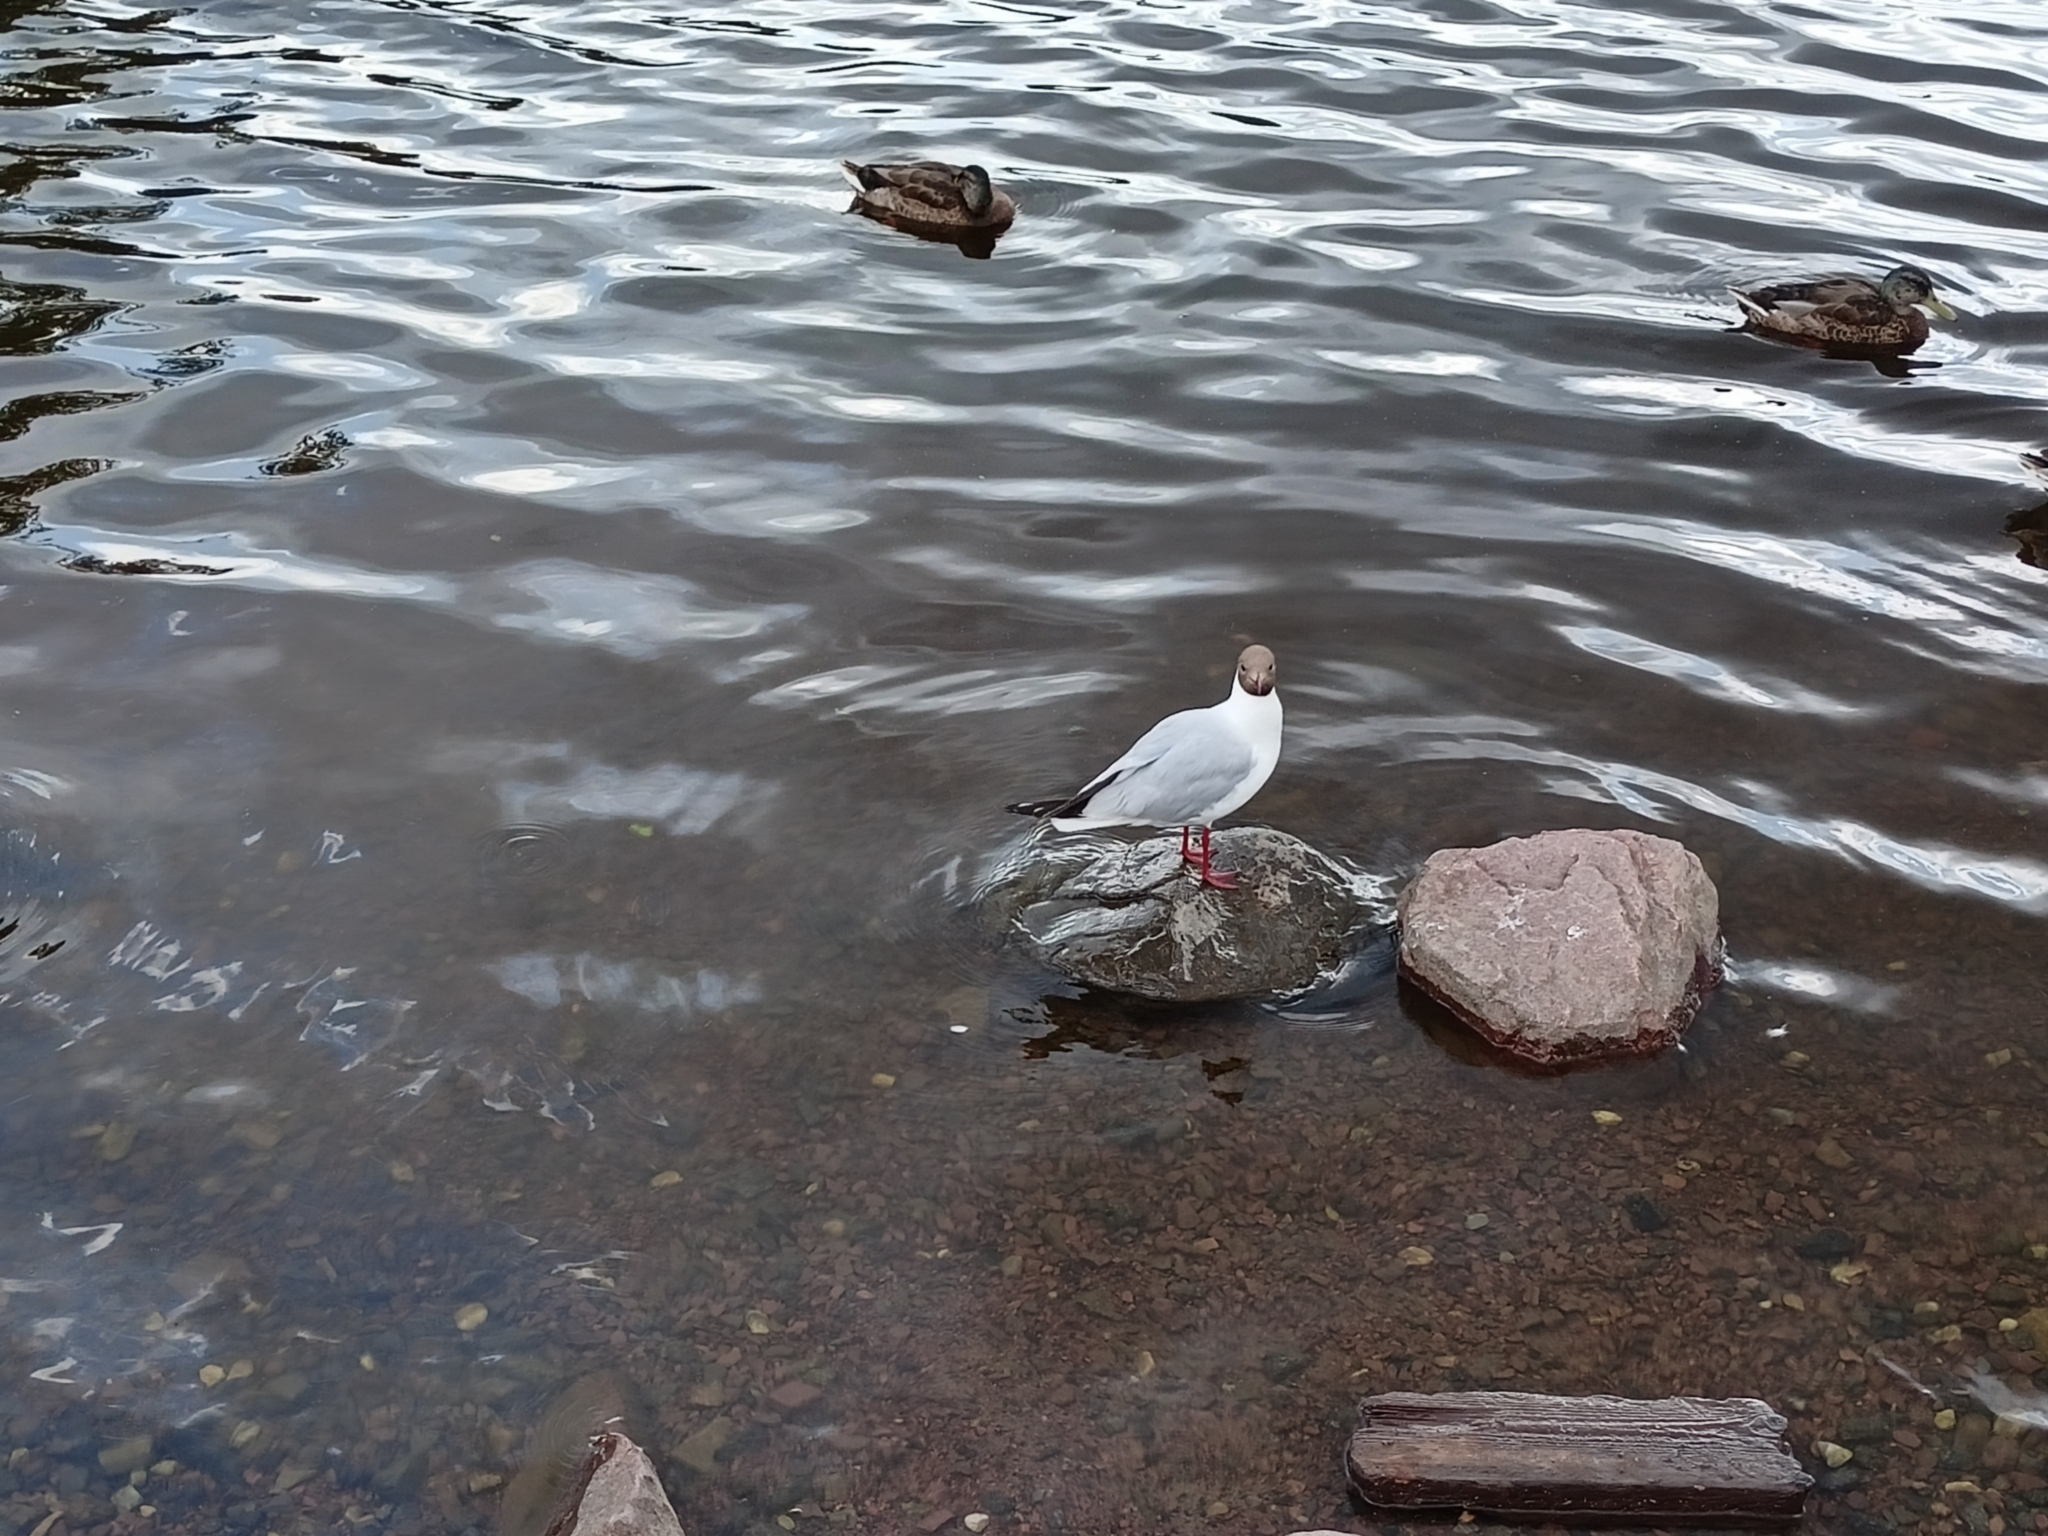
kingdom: Animalia
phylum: Chordata
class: Aves
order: Charadriiformes
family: Laridae
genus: Chroicocephalus
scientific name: Chroicocephalus ridibundus
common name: Black-headed gull
